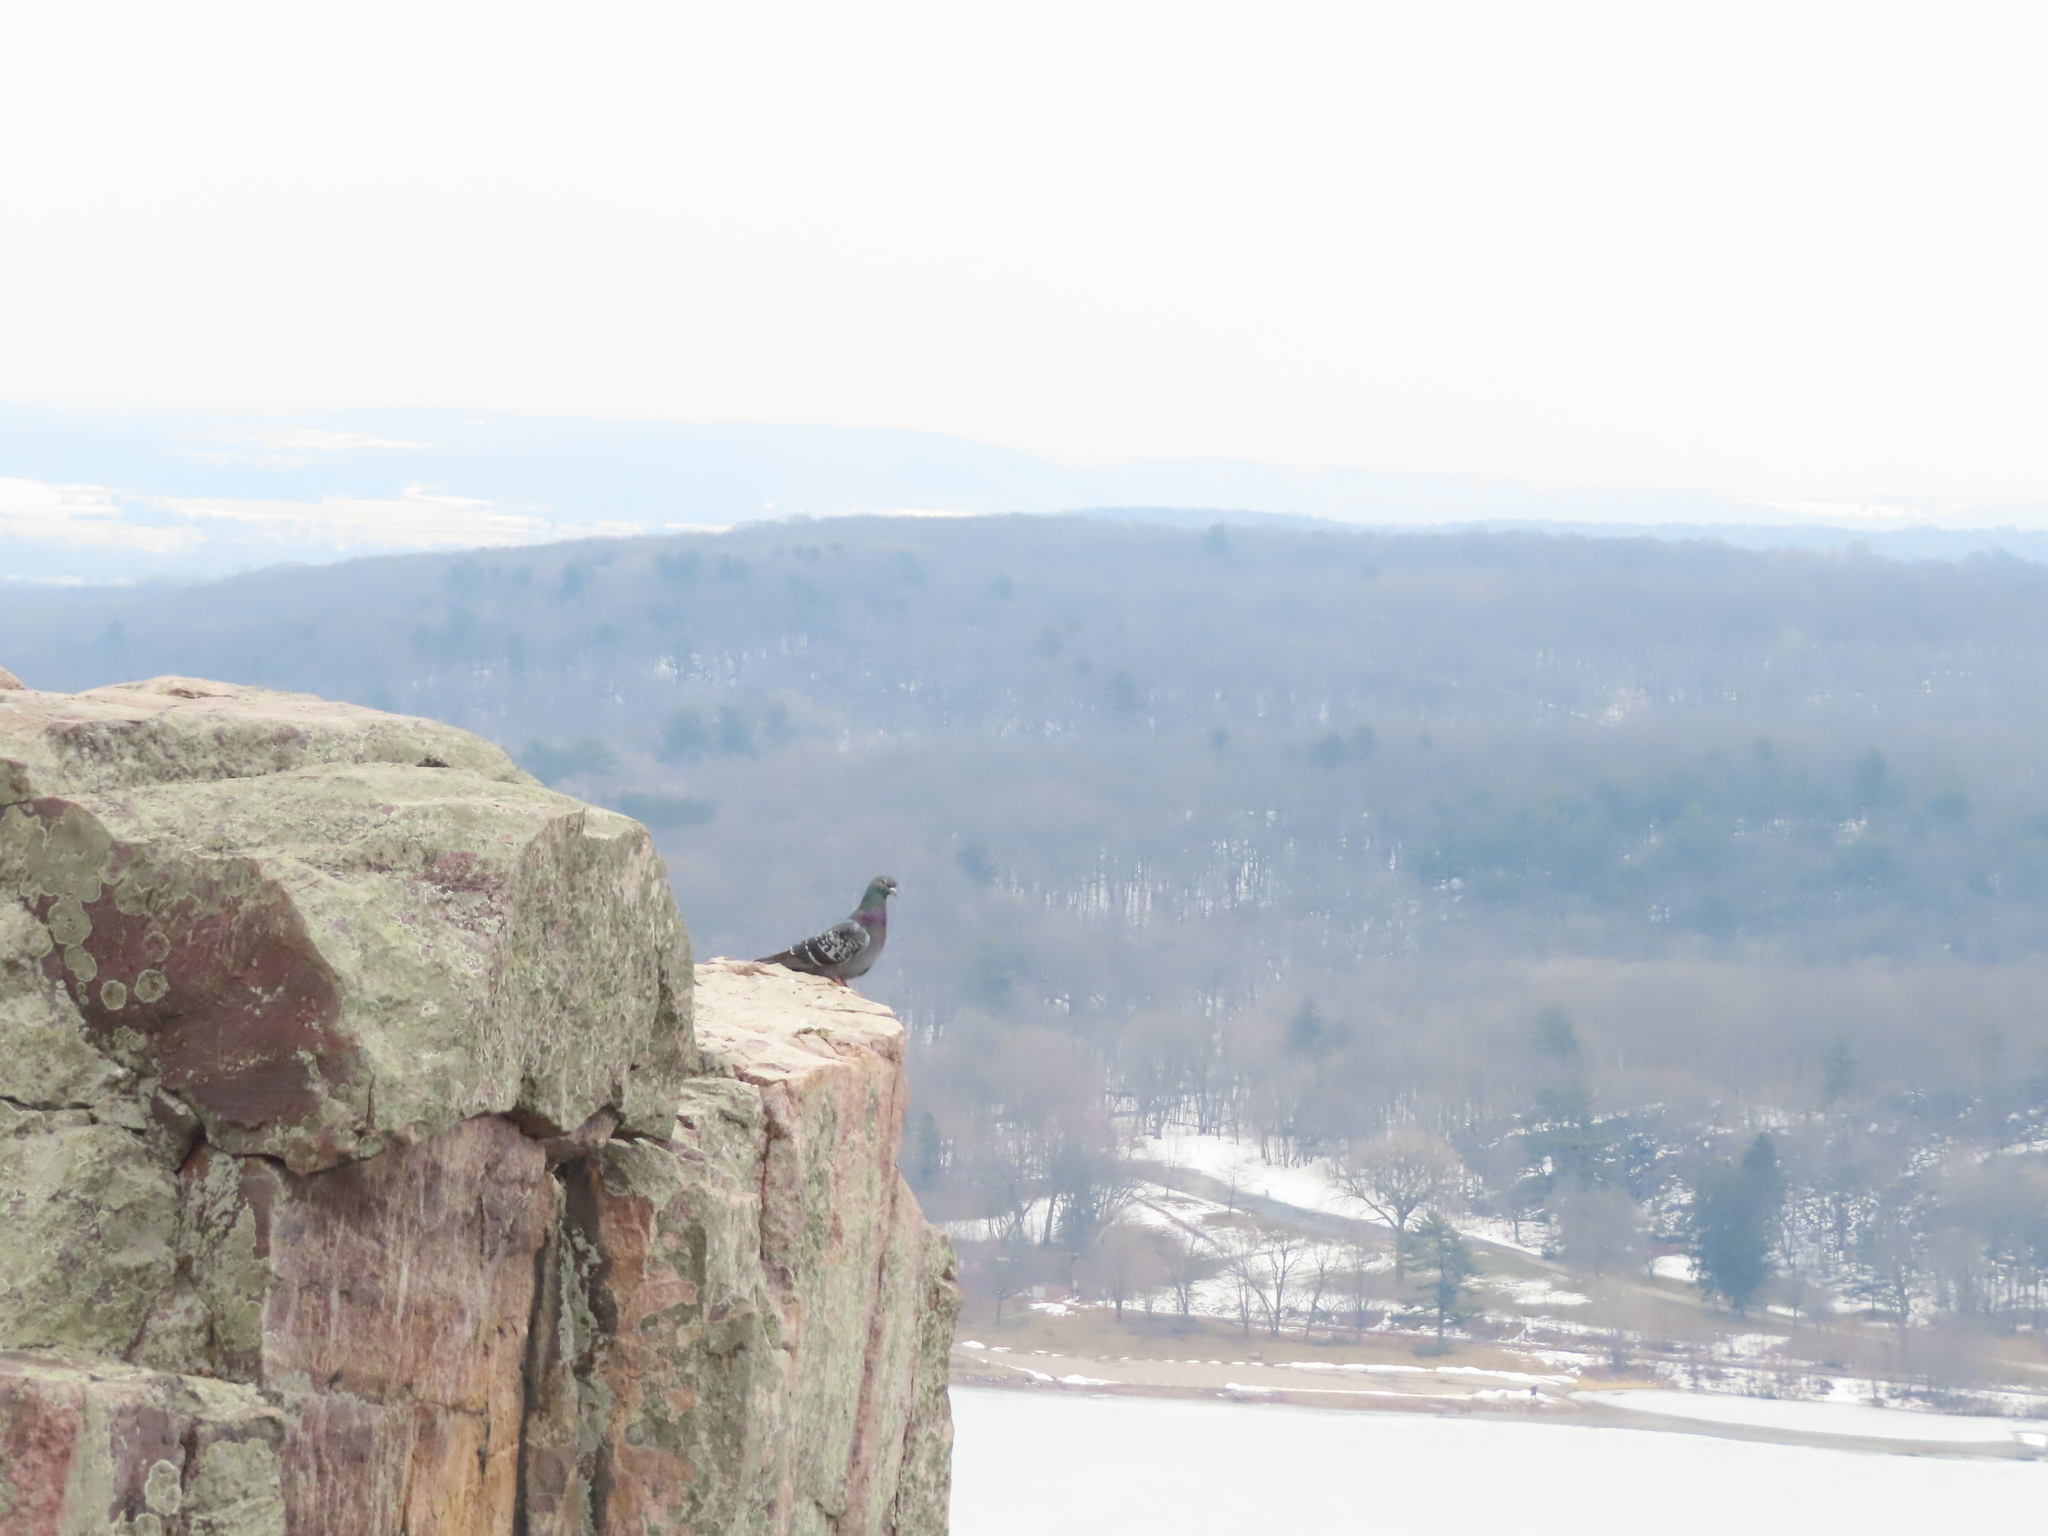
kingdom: Animalia
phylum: Chordata
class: Aves
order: Columbiformes
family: Columbidae
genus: Columba
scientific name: Columba livia
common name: Rock pigeon
